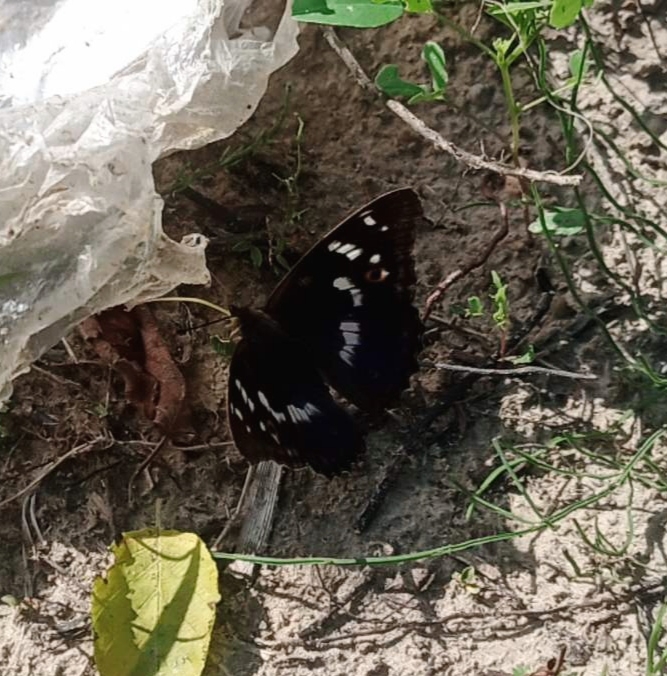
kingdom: Animalia
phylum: Arthropoda
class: Insecta
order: Lepidoptera
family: Nymphalidae
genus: Apatura
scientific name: Apatura ilia
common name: Lesser purple emperor
